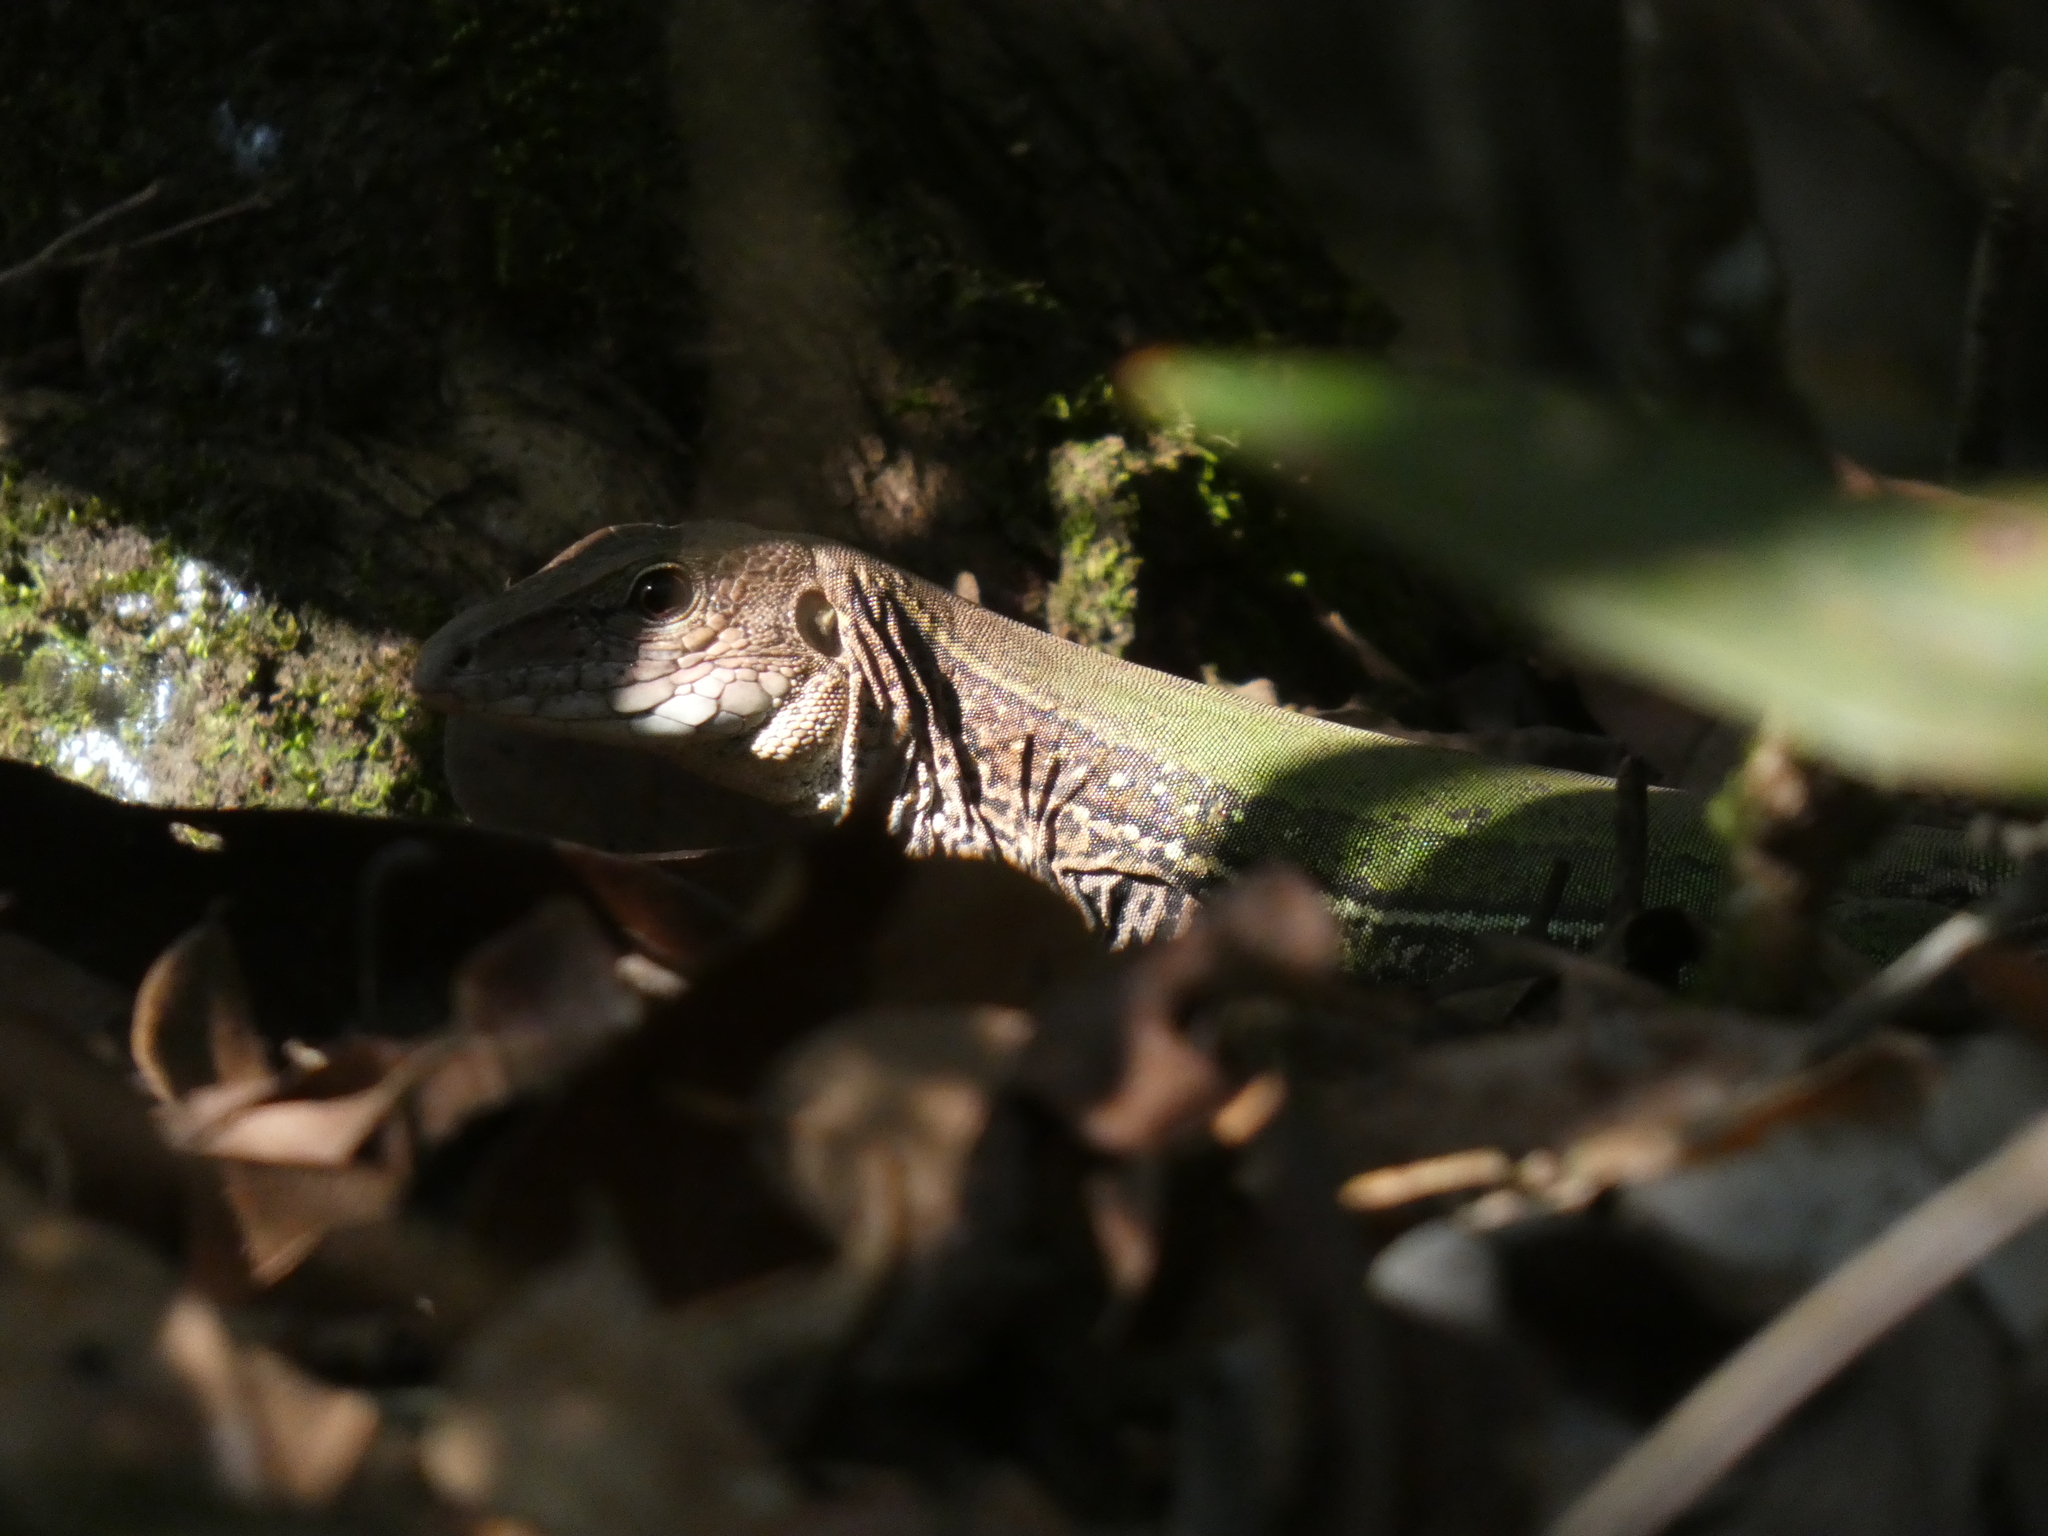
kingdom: Animalia
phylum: Chordata
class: Squamata
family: Teiidae
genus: Ameiva
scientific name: Ameiva ameiva
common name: Giant ameiva
